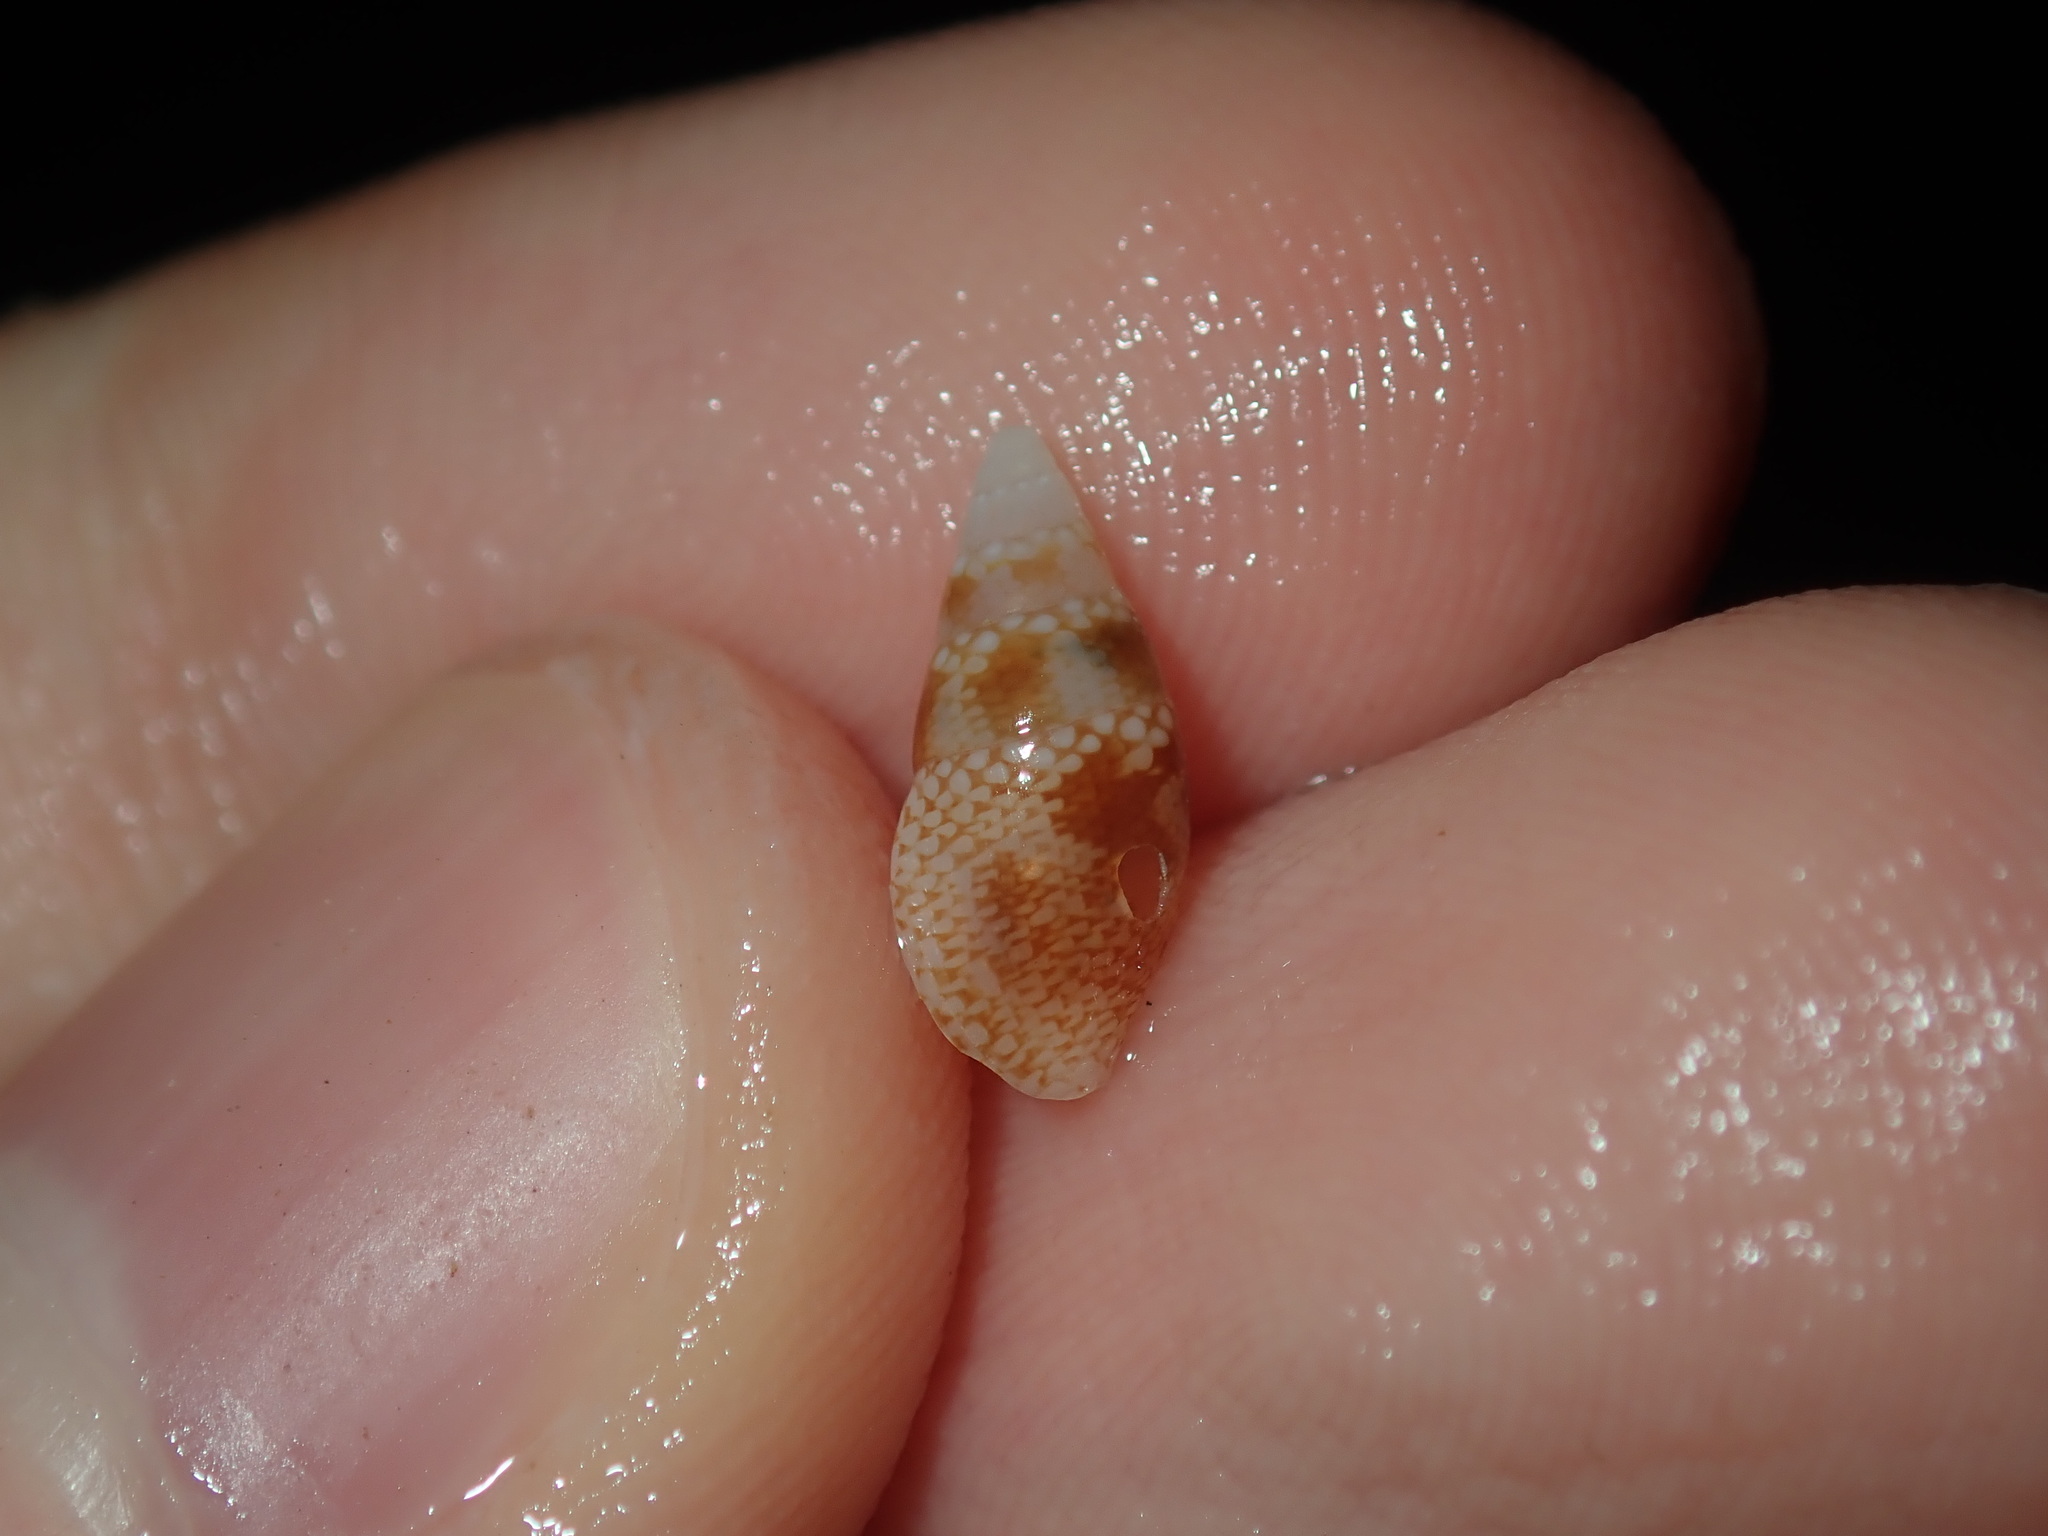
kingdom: Animalia
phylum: Mollusca
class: Gastropoda
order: Neogastropoda
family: Columbellidae
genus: Mitrella
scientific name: Mitrella tayloriana
